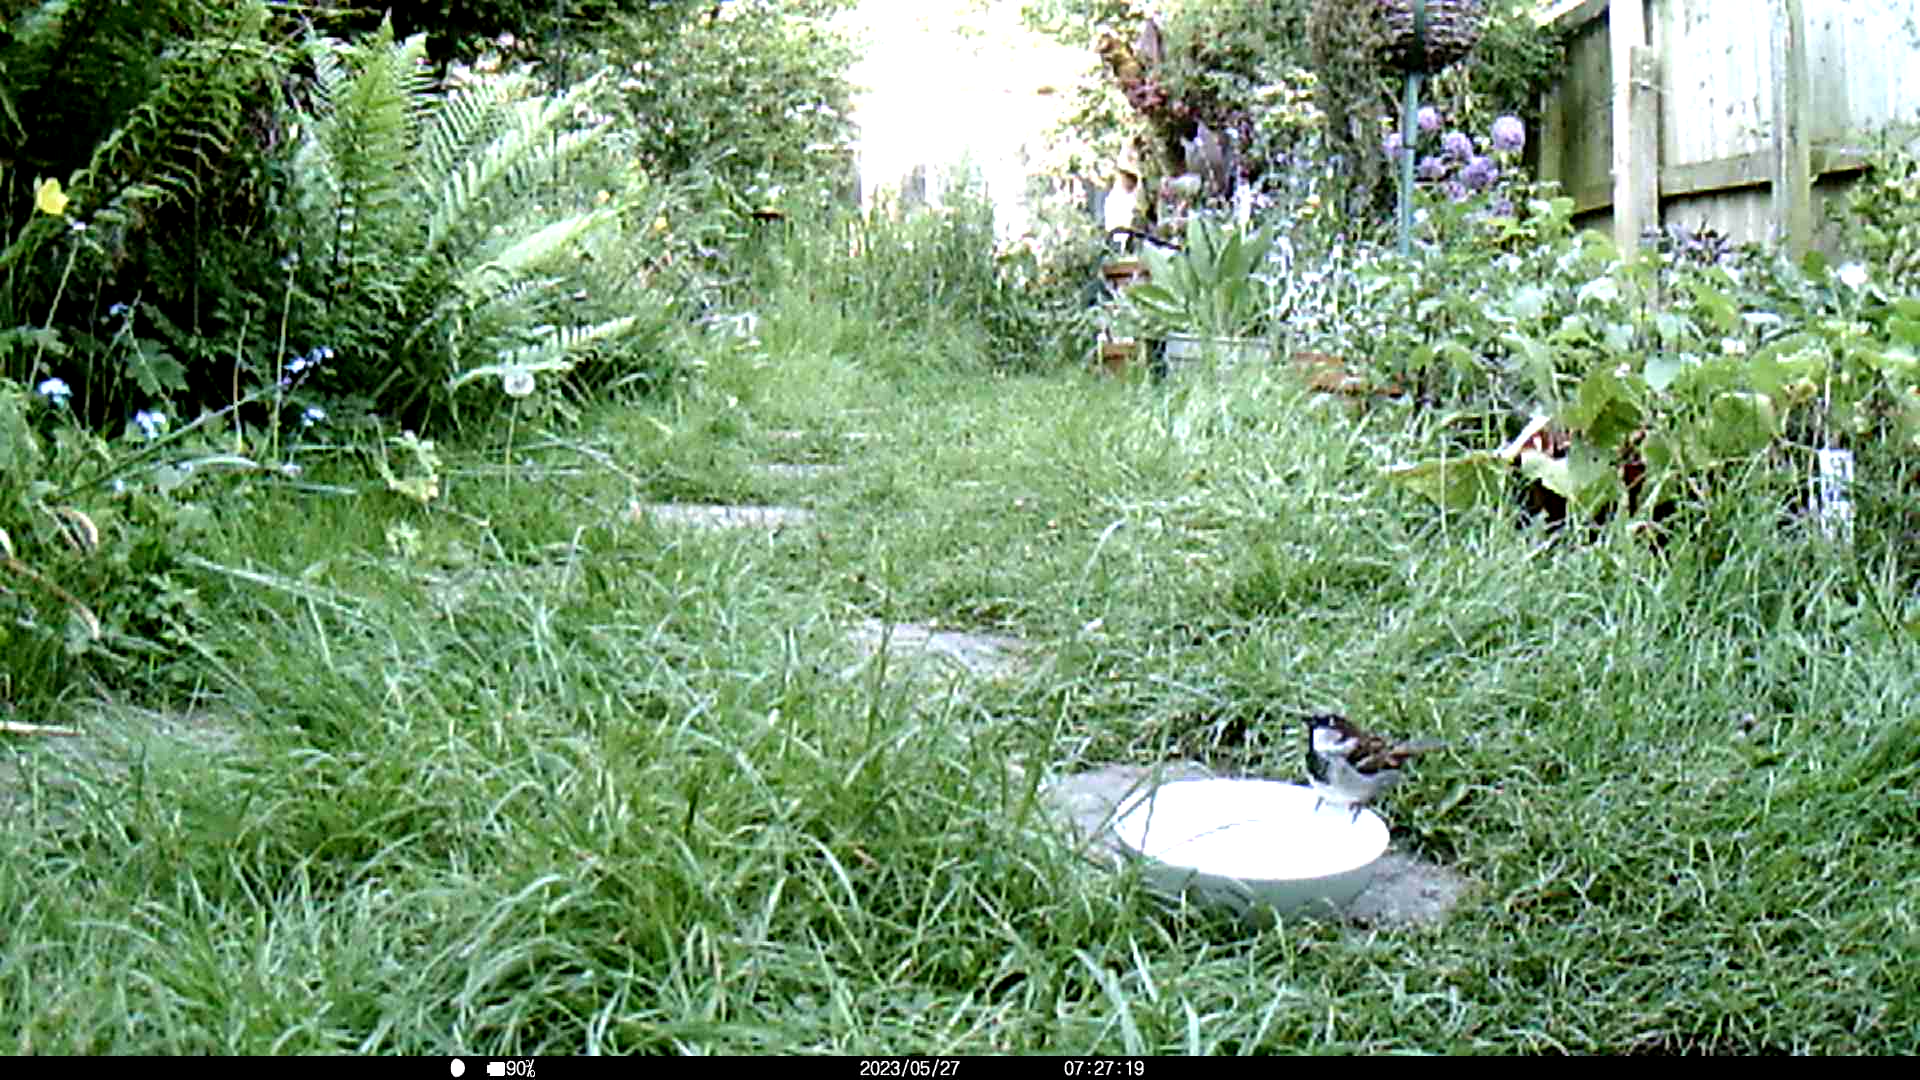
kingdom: Animalia
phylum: Chordata
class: Aves
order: Passeriformes
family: Passeridae
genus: Passer
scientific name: Passer domesticus
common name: House sparrow
